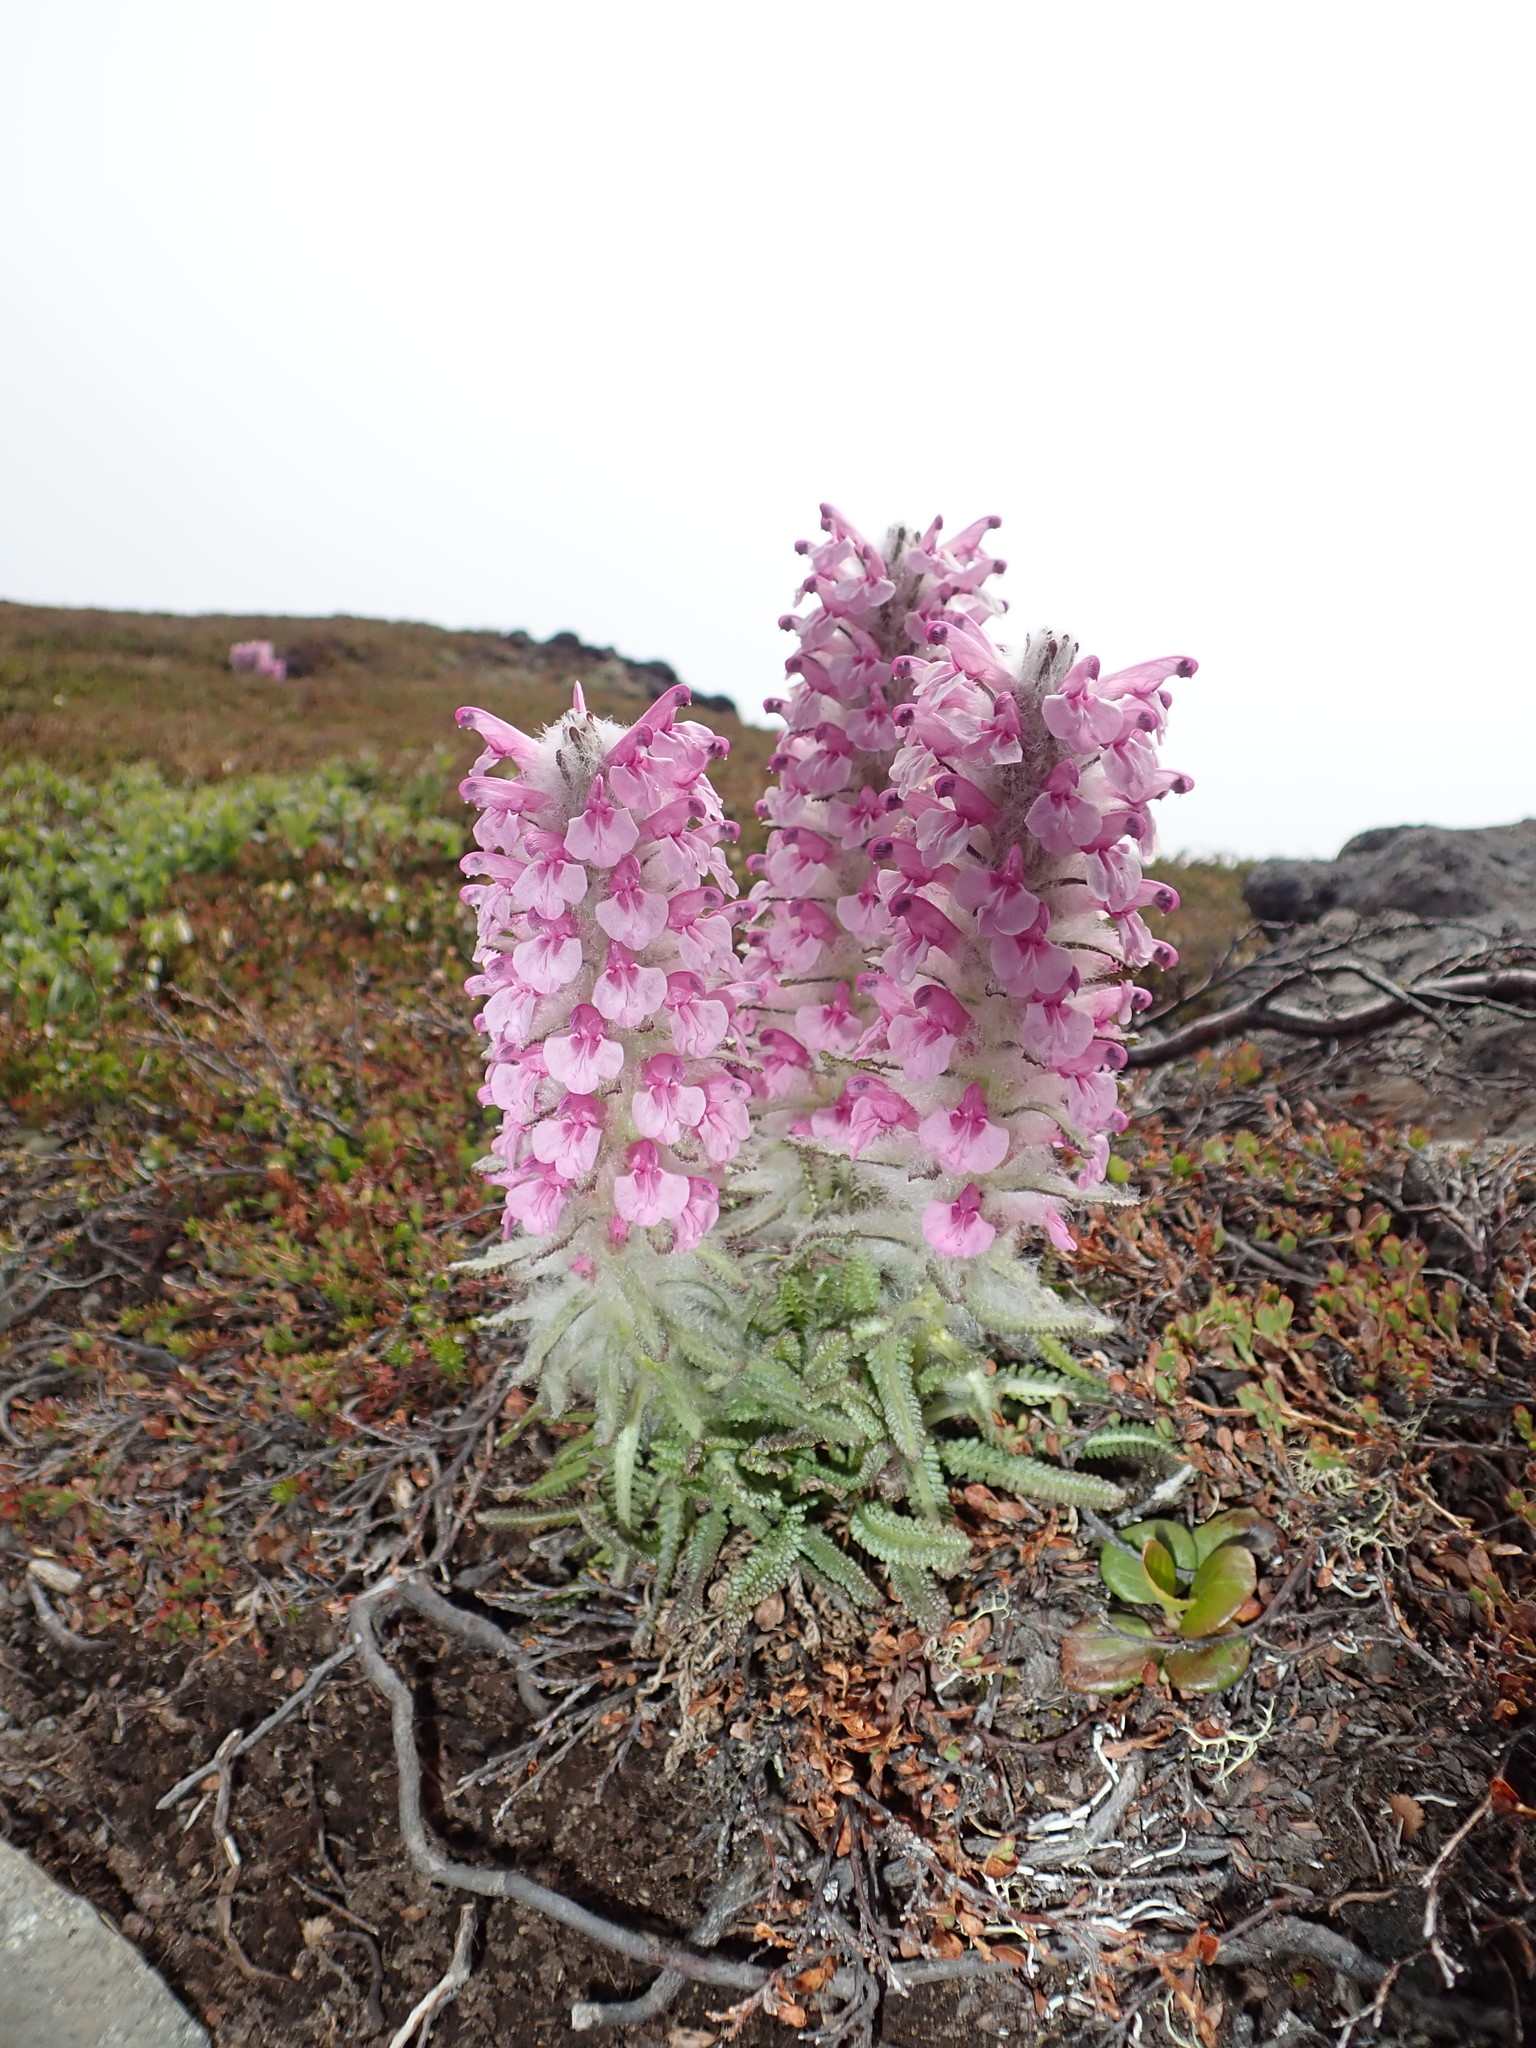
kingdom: Plantae
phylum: Tracheophyta
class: Magnoliopsida
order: Lamiales
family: Orobanchaceae
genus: Pedicularis
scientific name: Pedicularis lanata
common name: Woolly lousewort
